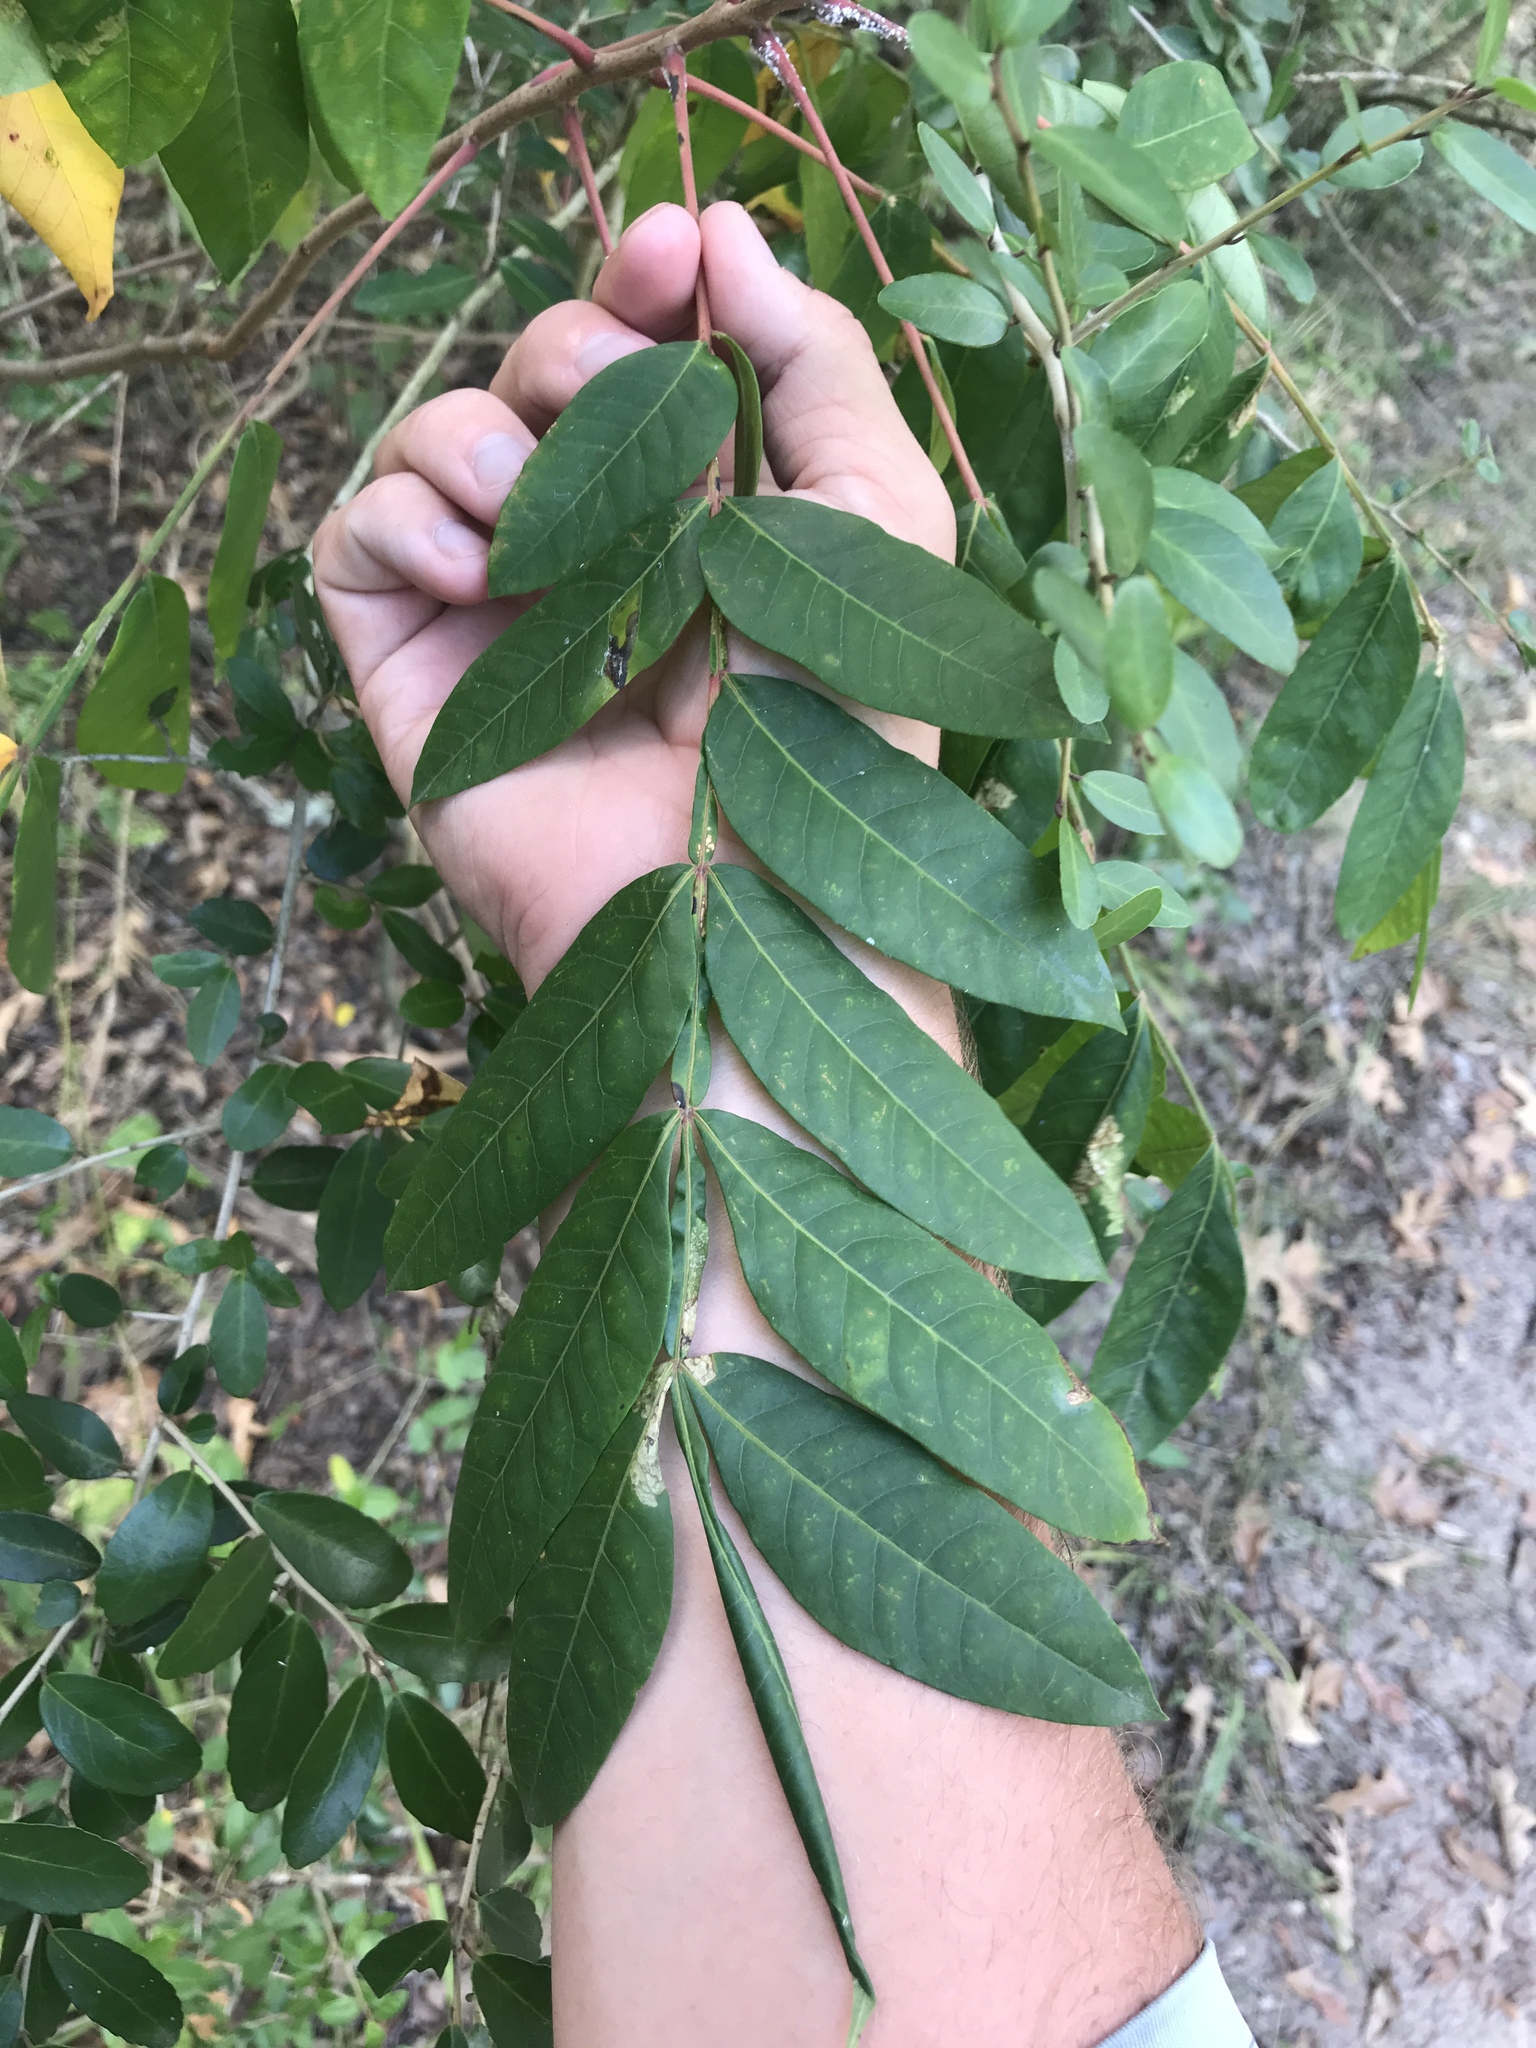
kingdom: Plantae
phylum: Tracheophyta
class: Magnoliopsida
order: Sapindales
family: Anacardiaceae
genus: Rhus
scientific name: Rhus copallina
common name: Shining sumac
